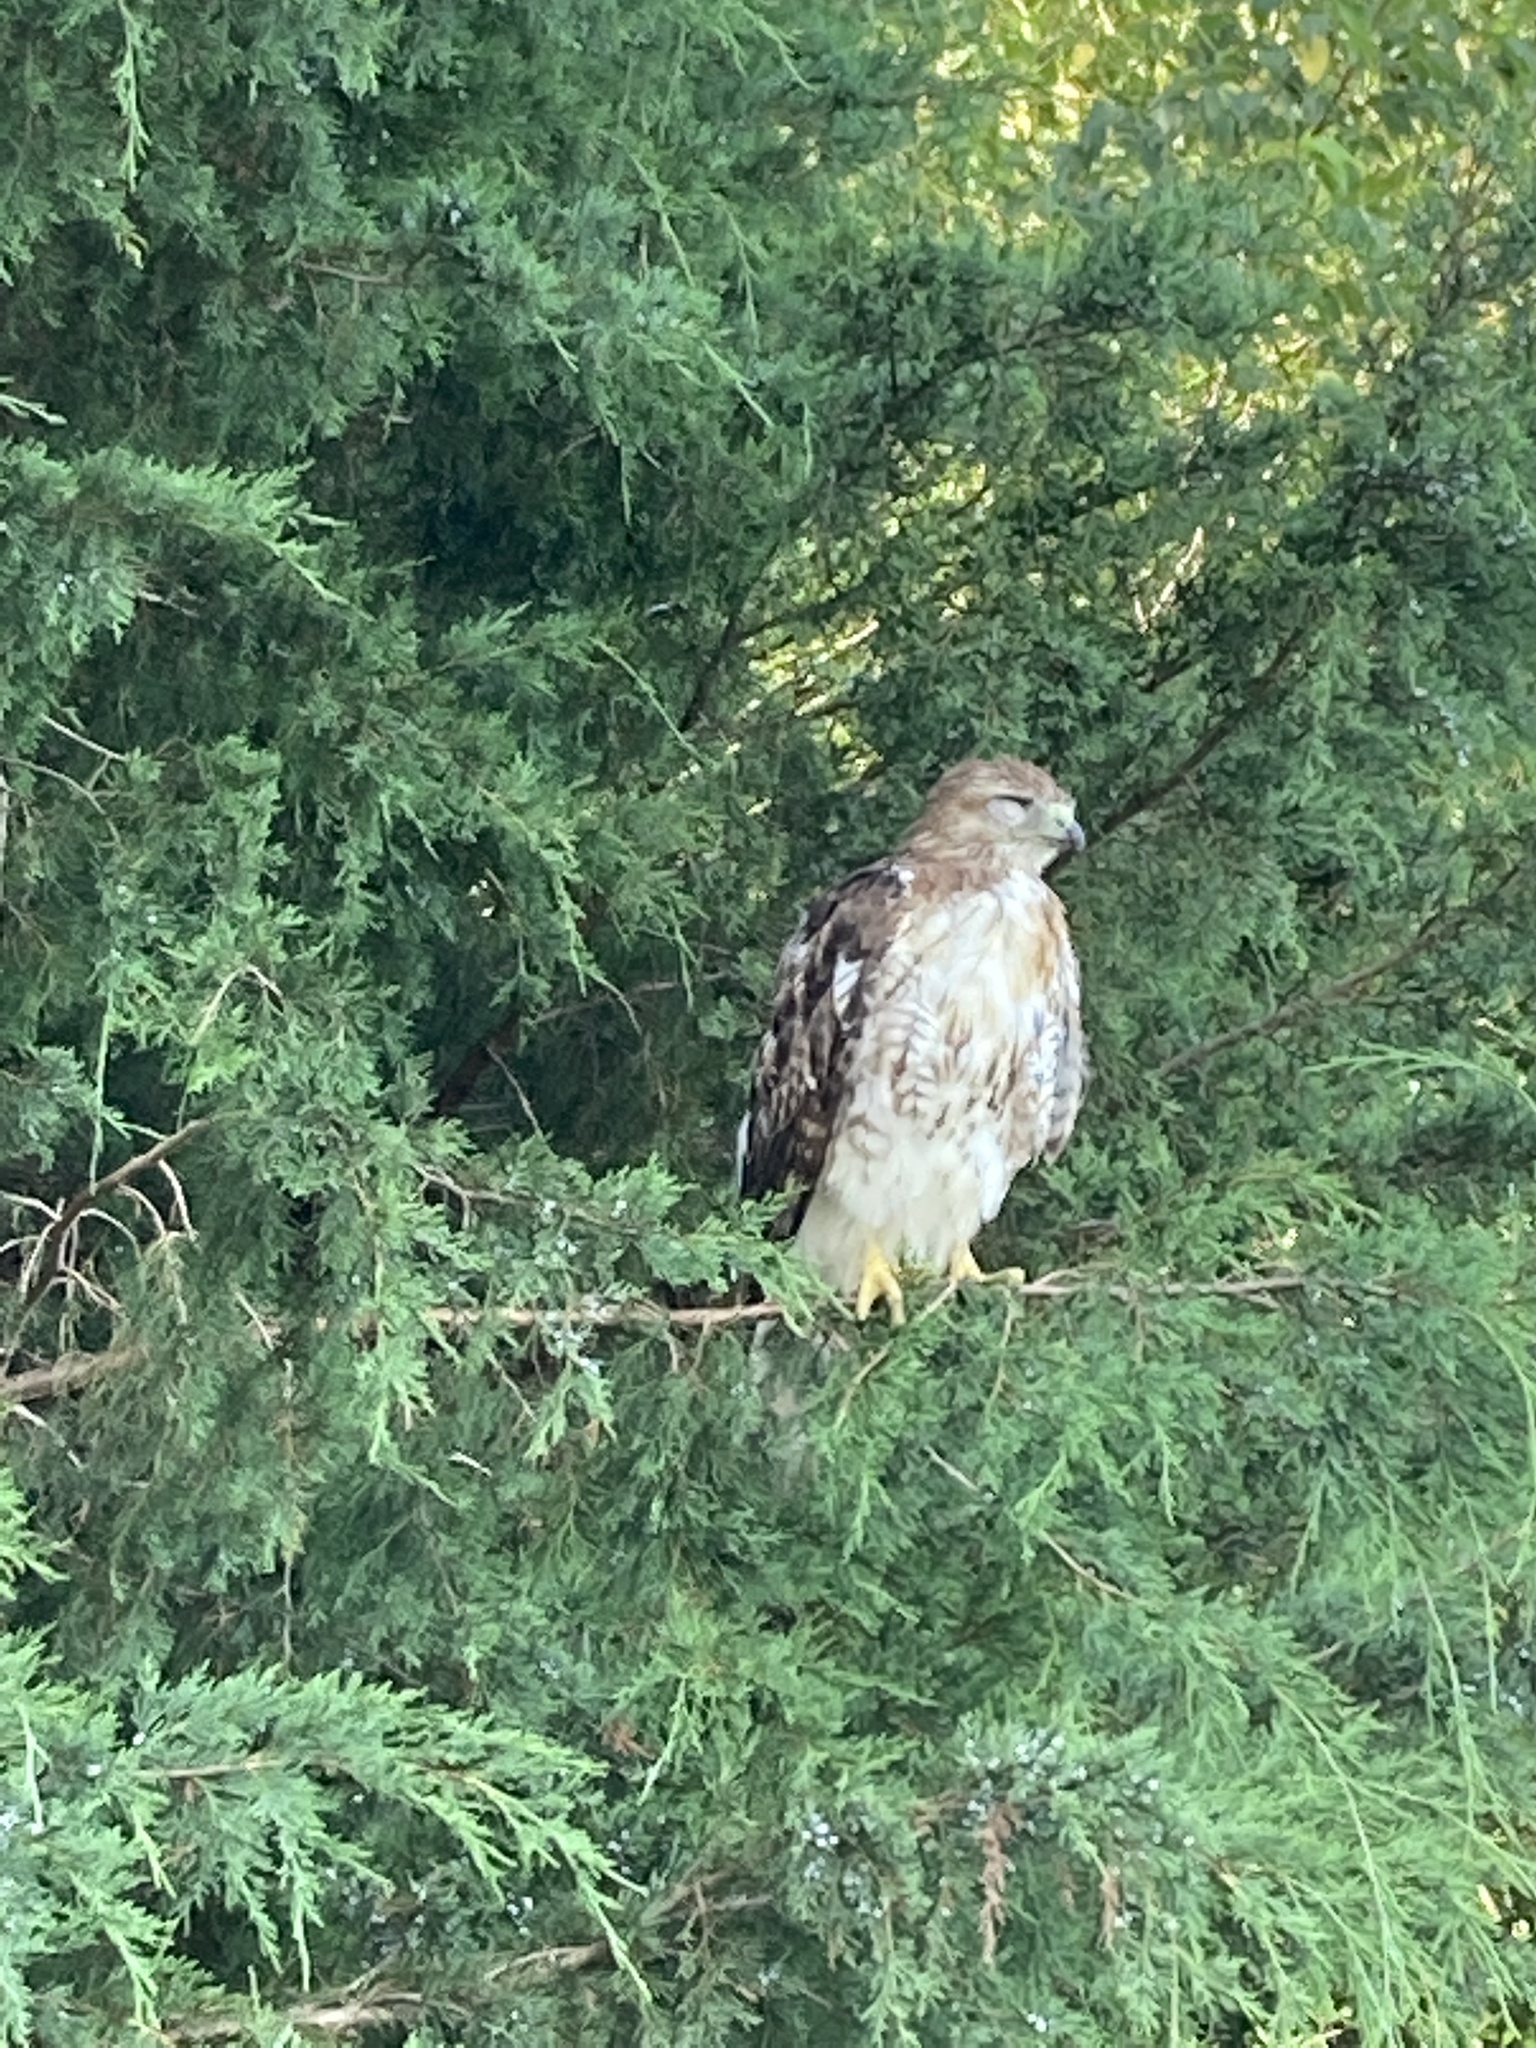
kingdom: Animalia
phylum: Chordata
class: Aves
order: Accipitriformes
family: Accipitridae
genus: Buteo
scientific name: Buteo jamaicensis
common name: Red-tailed hawk
